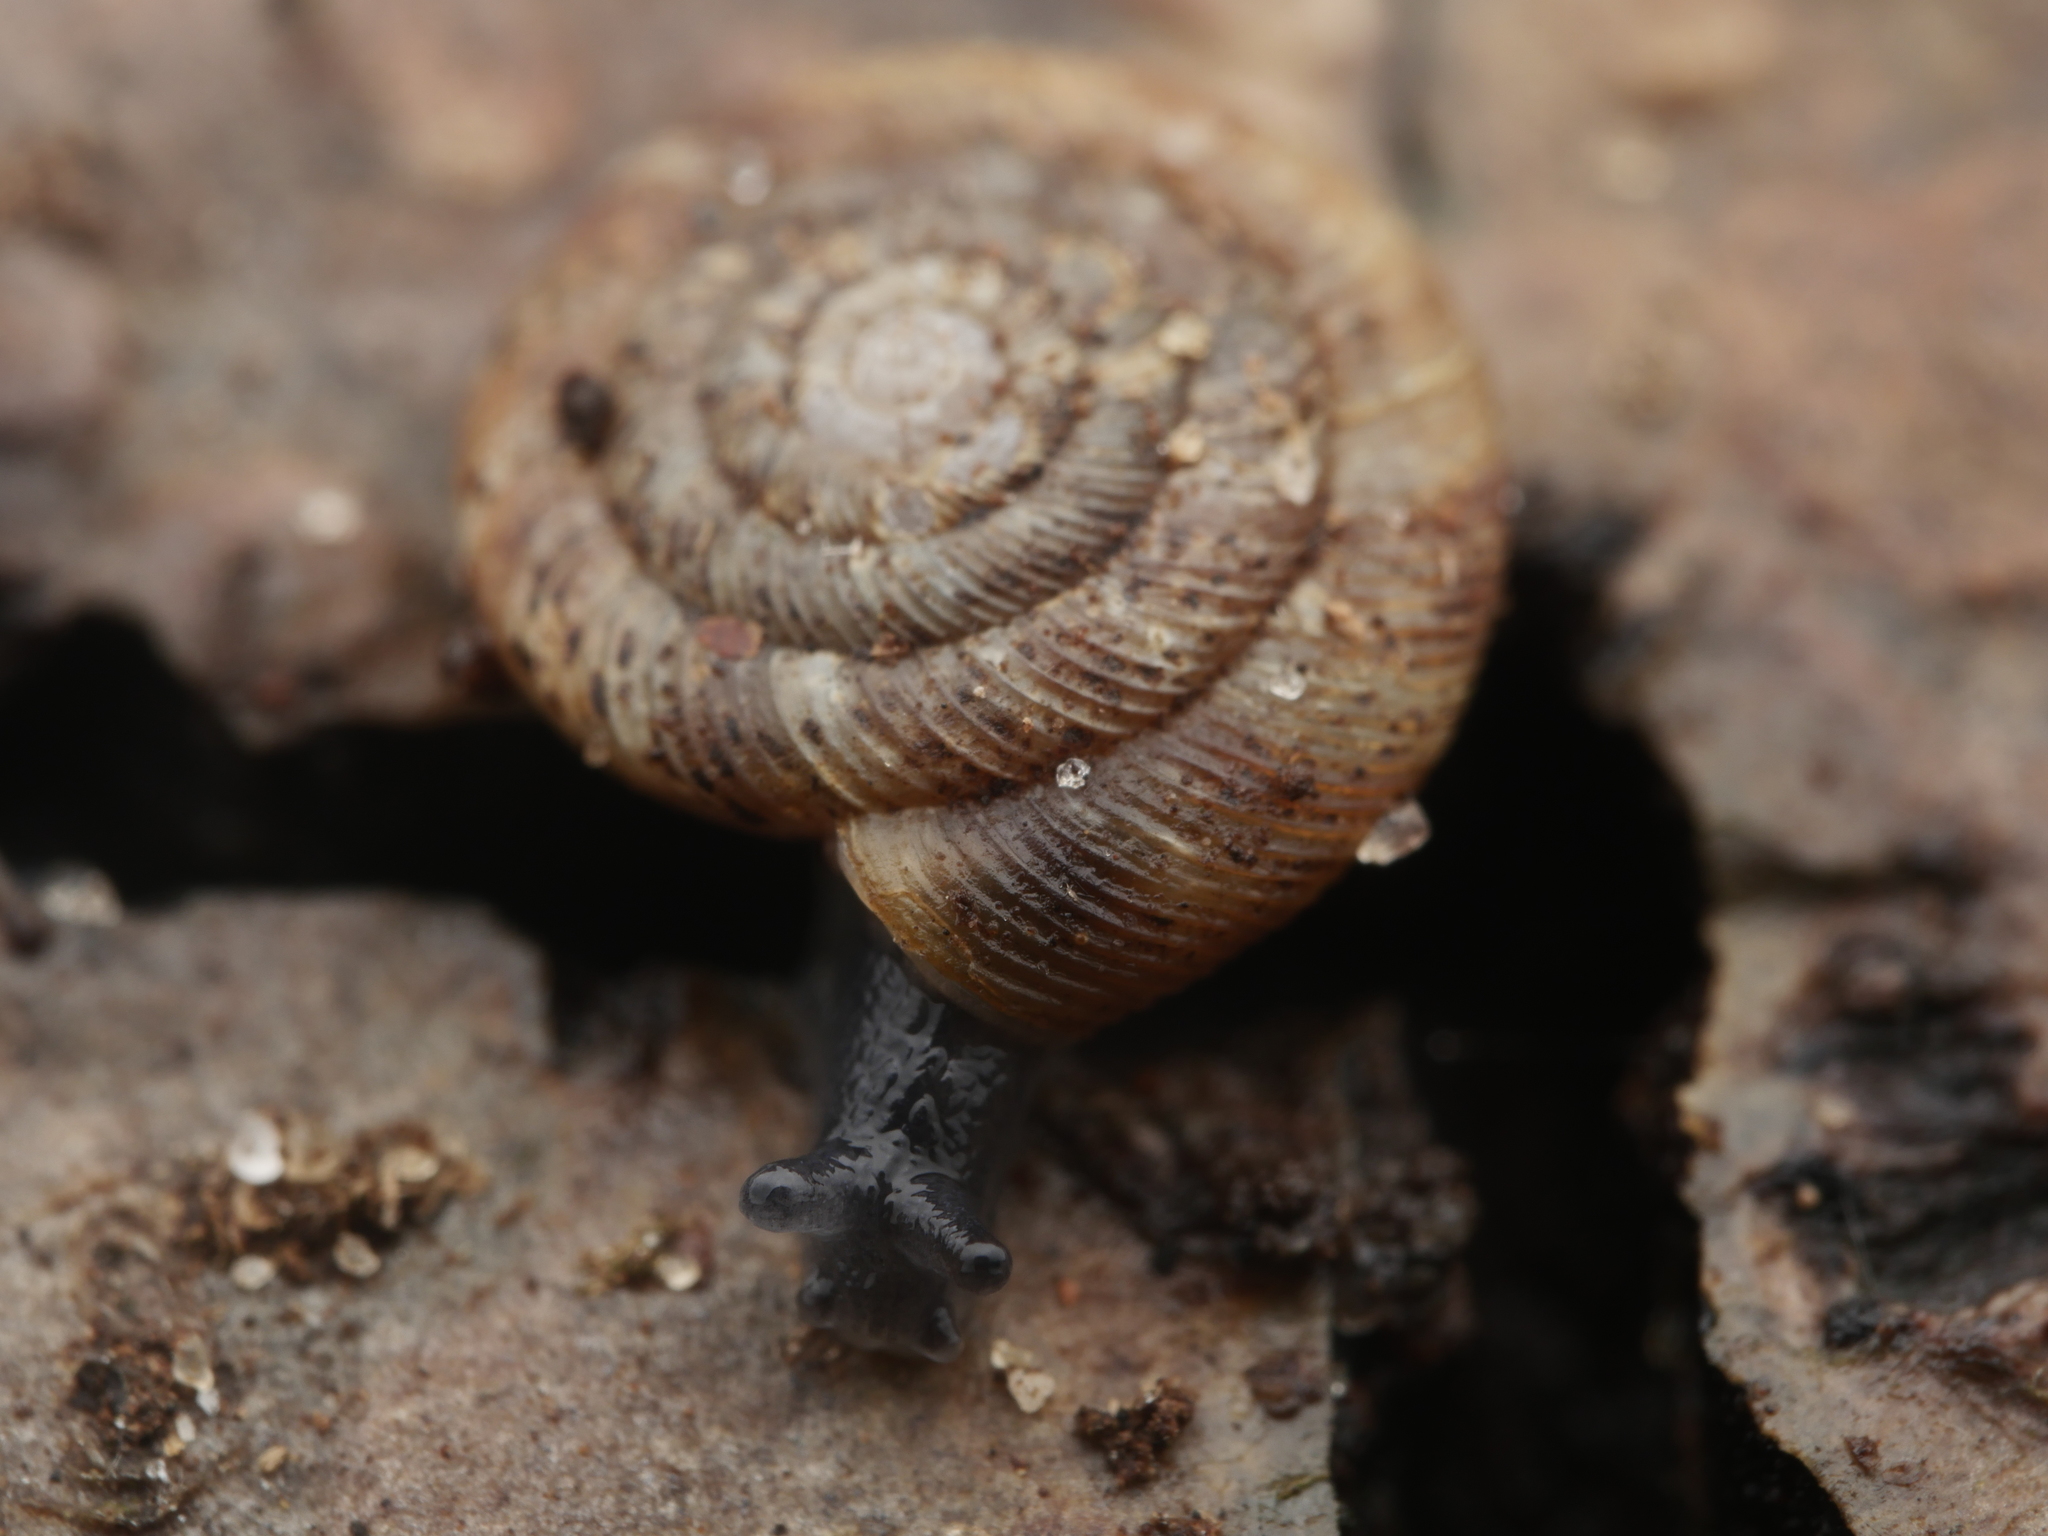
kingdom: Animalia
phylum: Mollusca
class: Gastropoda
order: Stylommatophora
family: Discidae
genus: Discus
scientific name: Discus rotundatus
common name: Rounded snail
